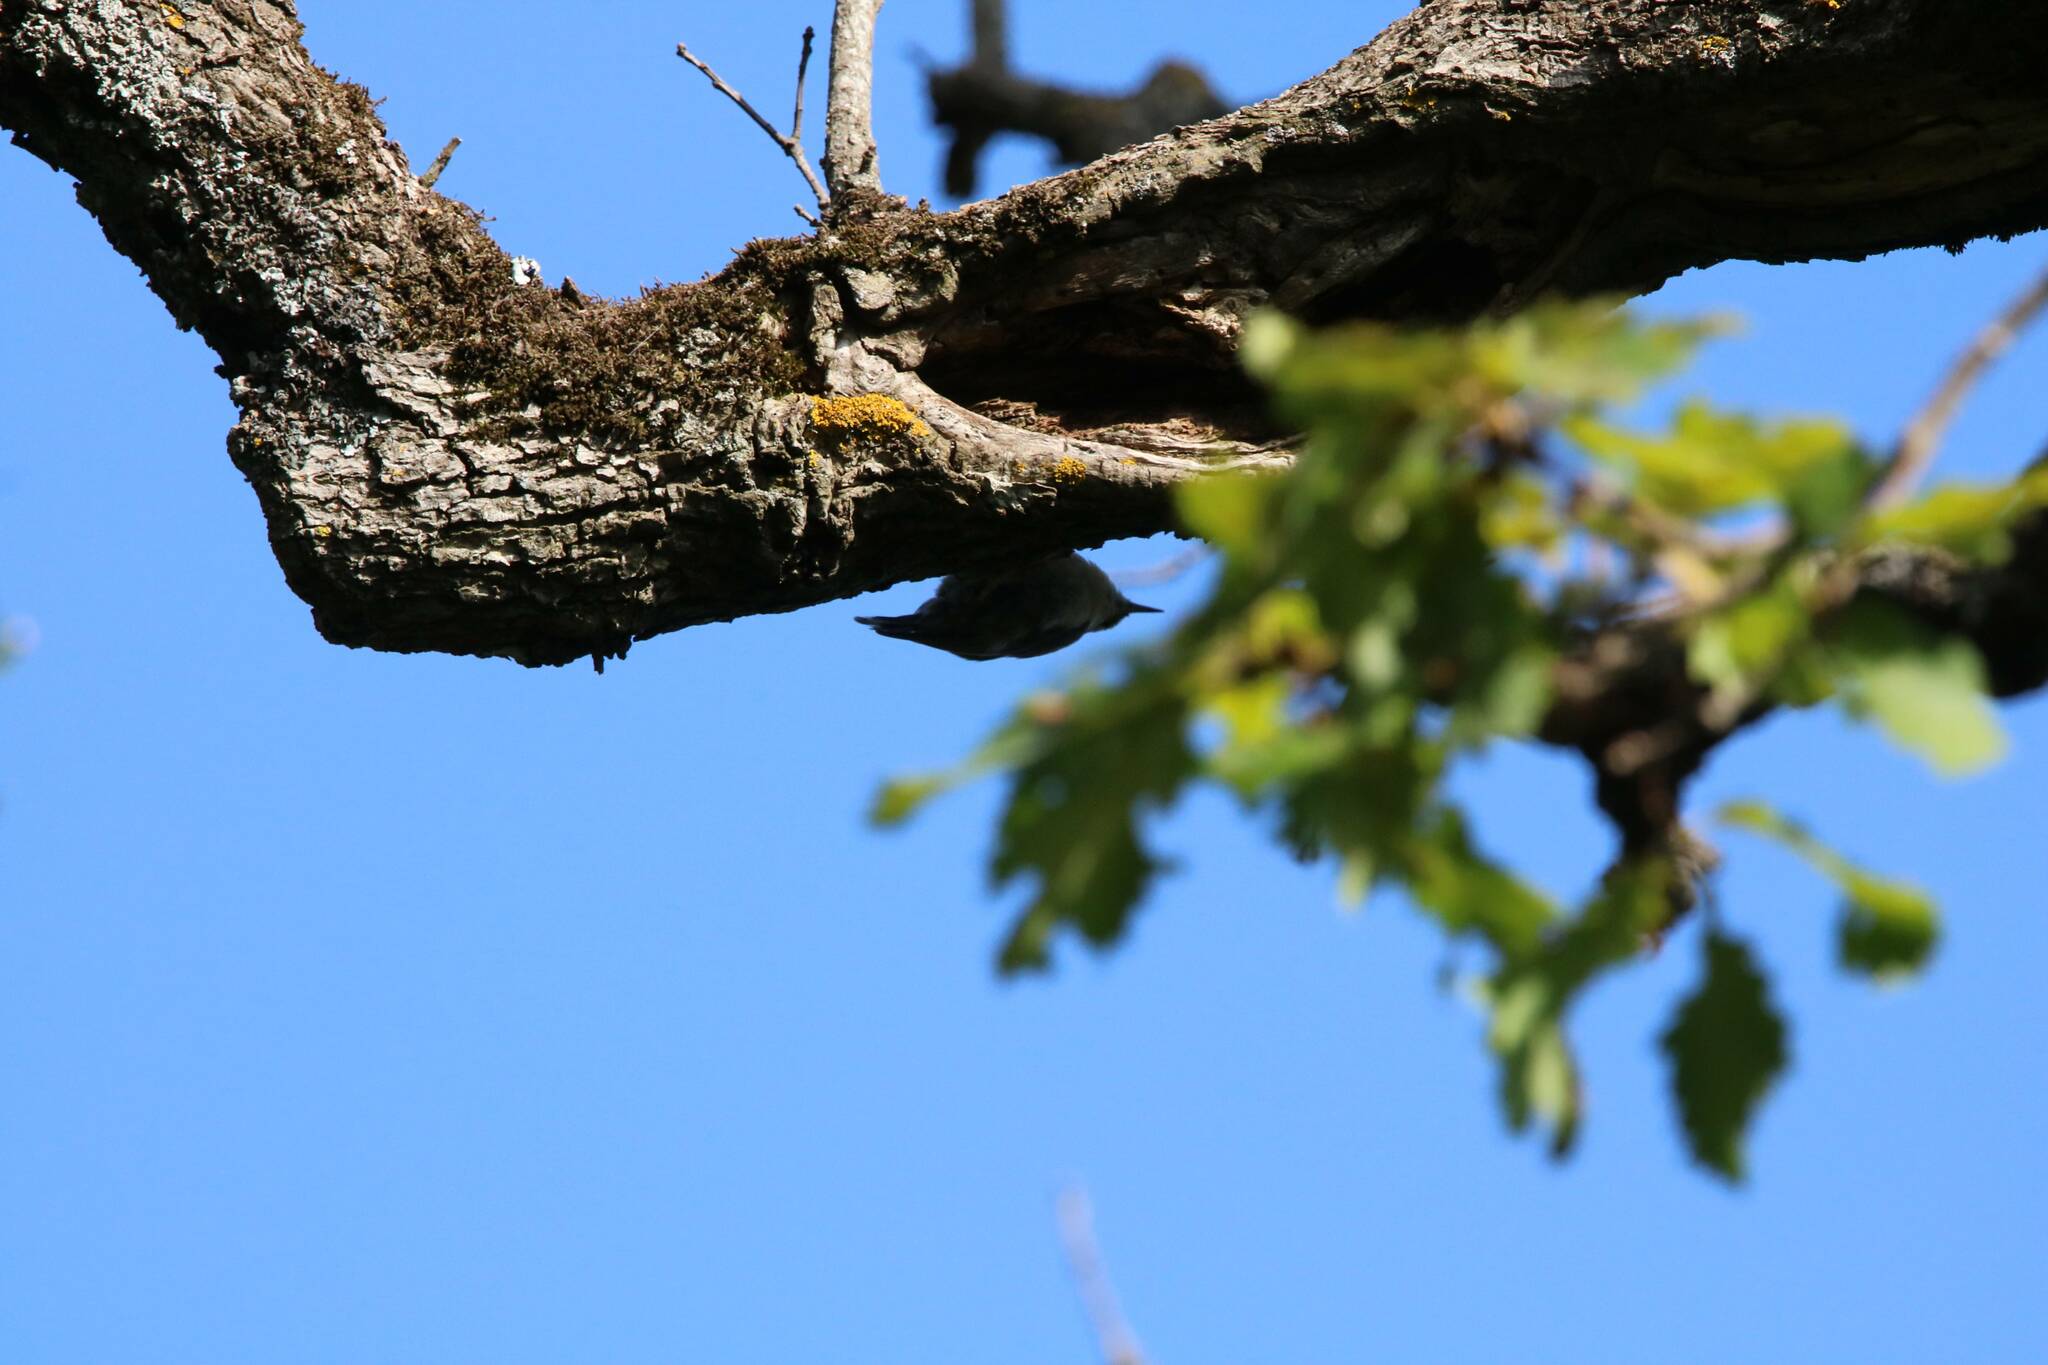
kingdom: Animalia
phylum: Chordata
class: Aves
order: Passeriformes
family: Sittidae
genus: Sitta
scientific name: Sitta ledanti
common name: Algerian nuthatch
